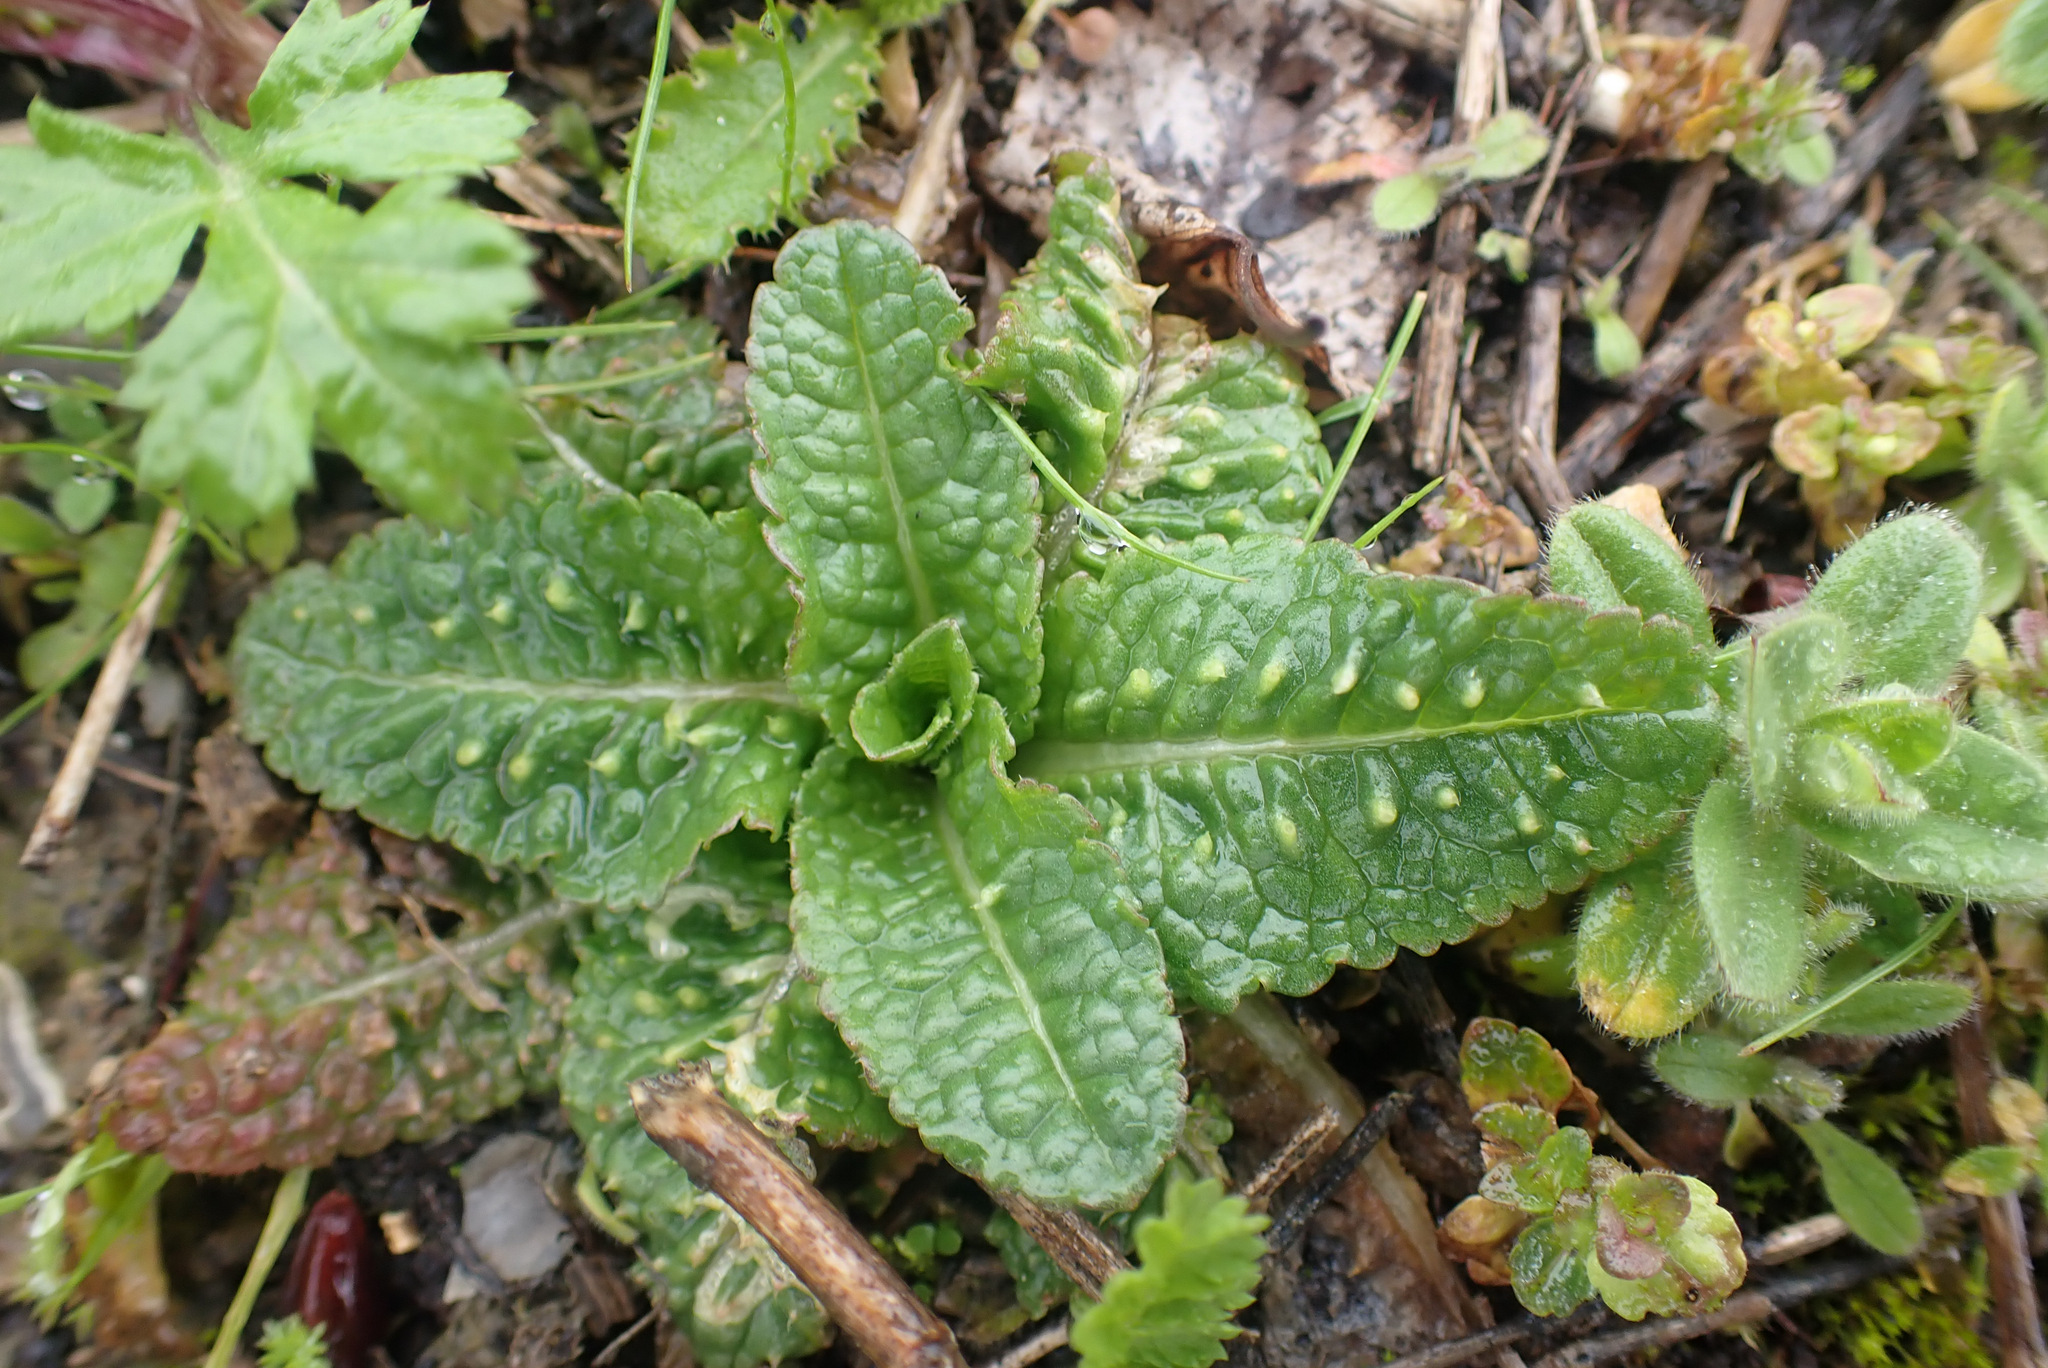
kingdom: Plantae
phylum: Tracheophyta
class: Magnoliopsida
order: Dipsacales
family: Caprifoliaceae
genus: Dipsacus
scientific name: Dipsacus fullonum
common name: Teasel
